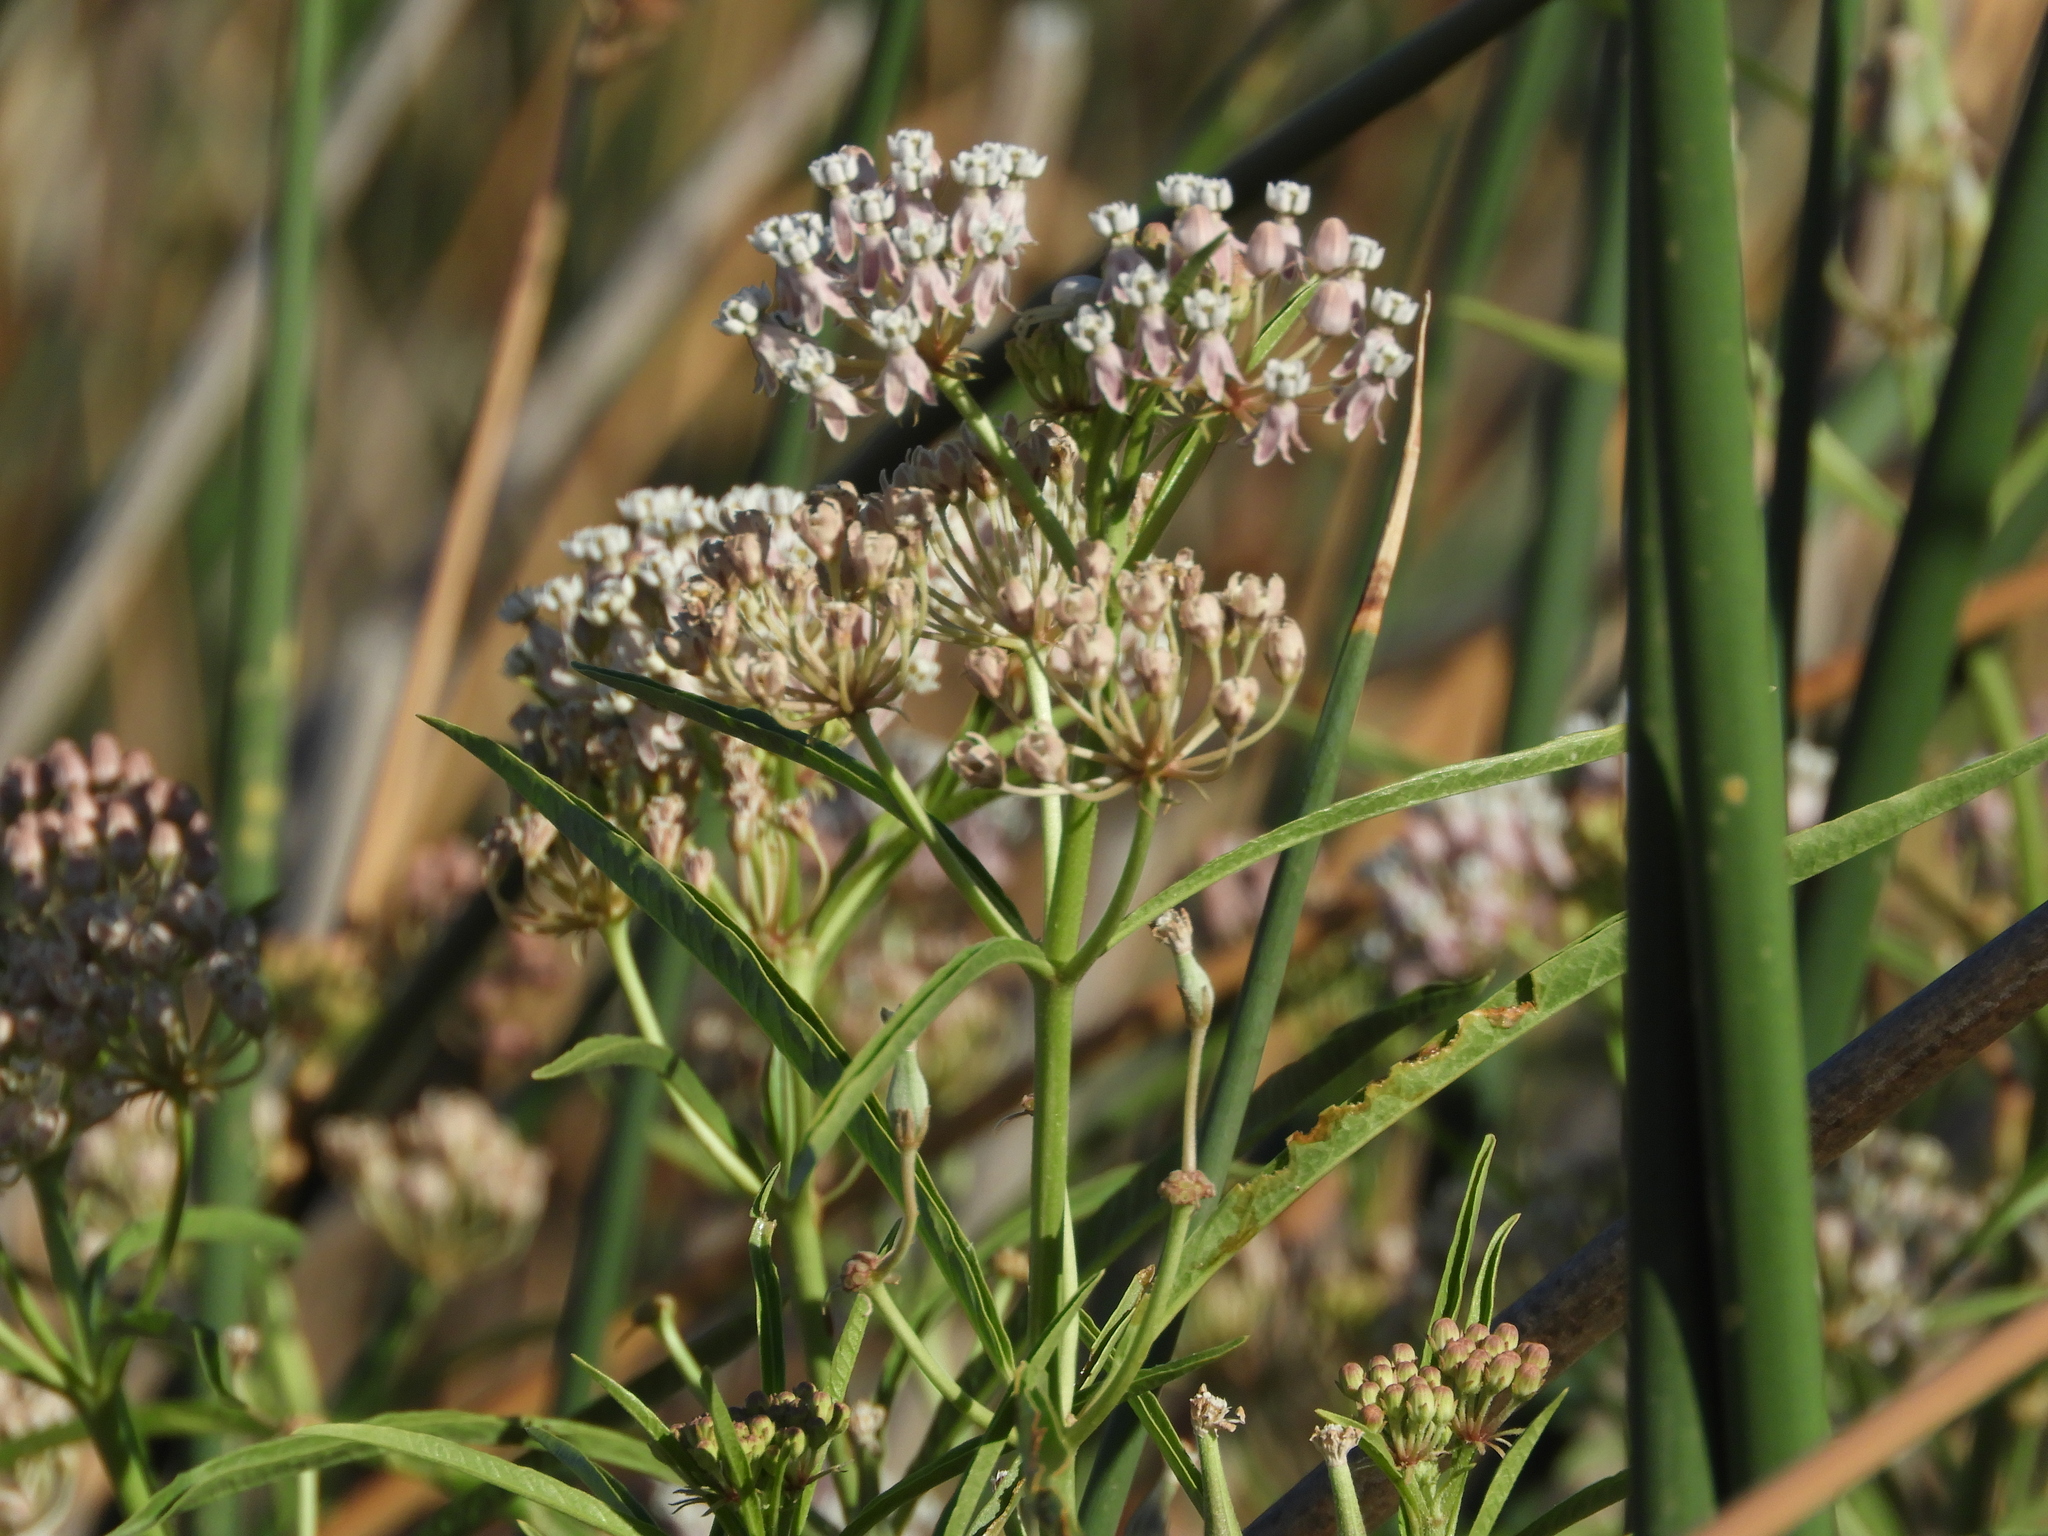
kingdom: Plantae
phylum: Tracheophyta
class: Magnoliopsida
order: Gentianales
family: Apocynaceae
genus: Asclepias
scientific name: Asclepias fascicularis
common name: Mexican milkweed
